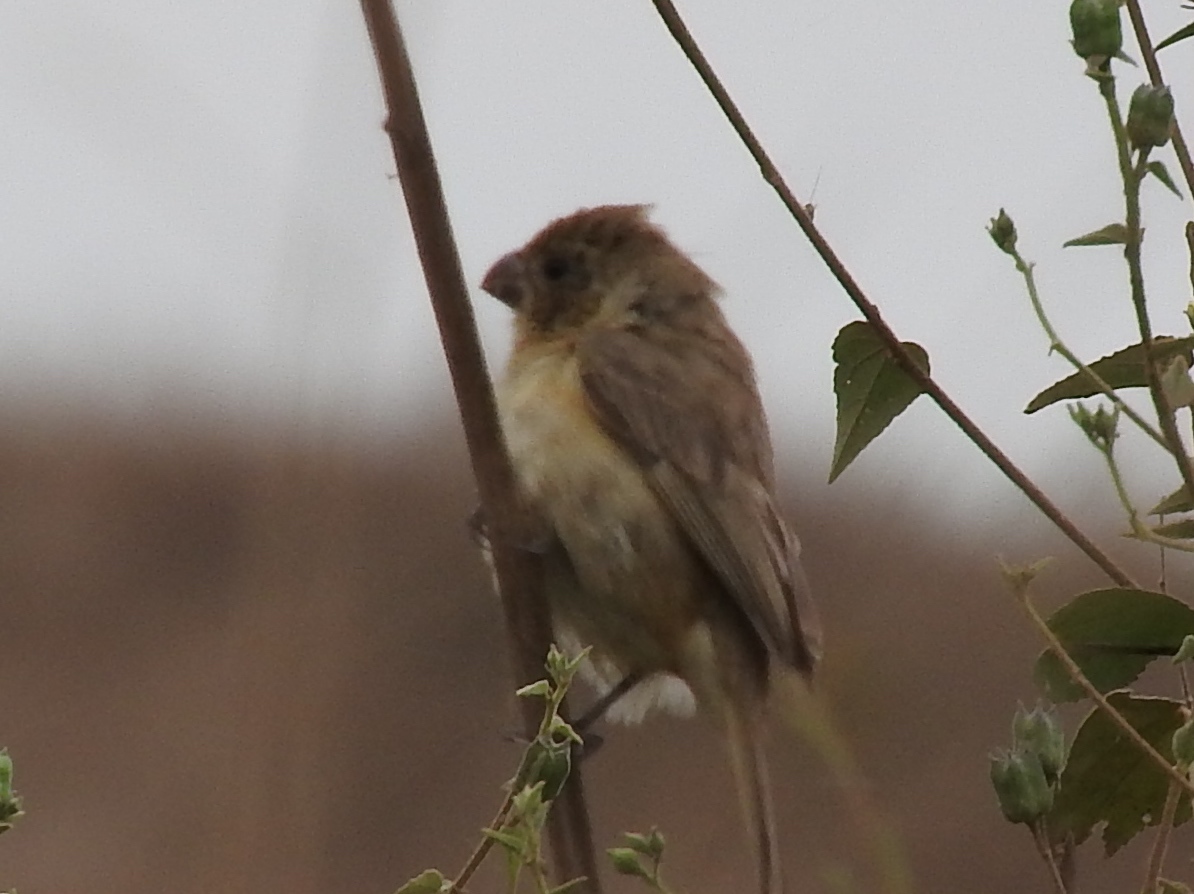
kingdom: Animalia
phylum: Chordata
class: Aves
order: Passeriformes
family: Thraupidae
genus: Sporophila
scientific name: Sporophila torqueola
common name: White-collared seedeater
